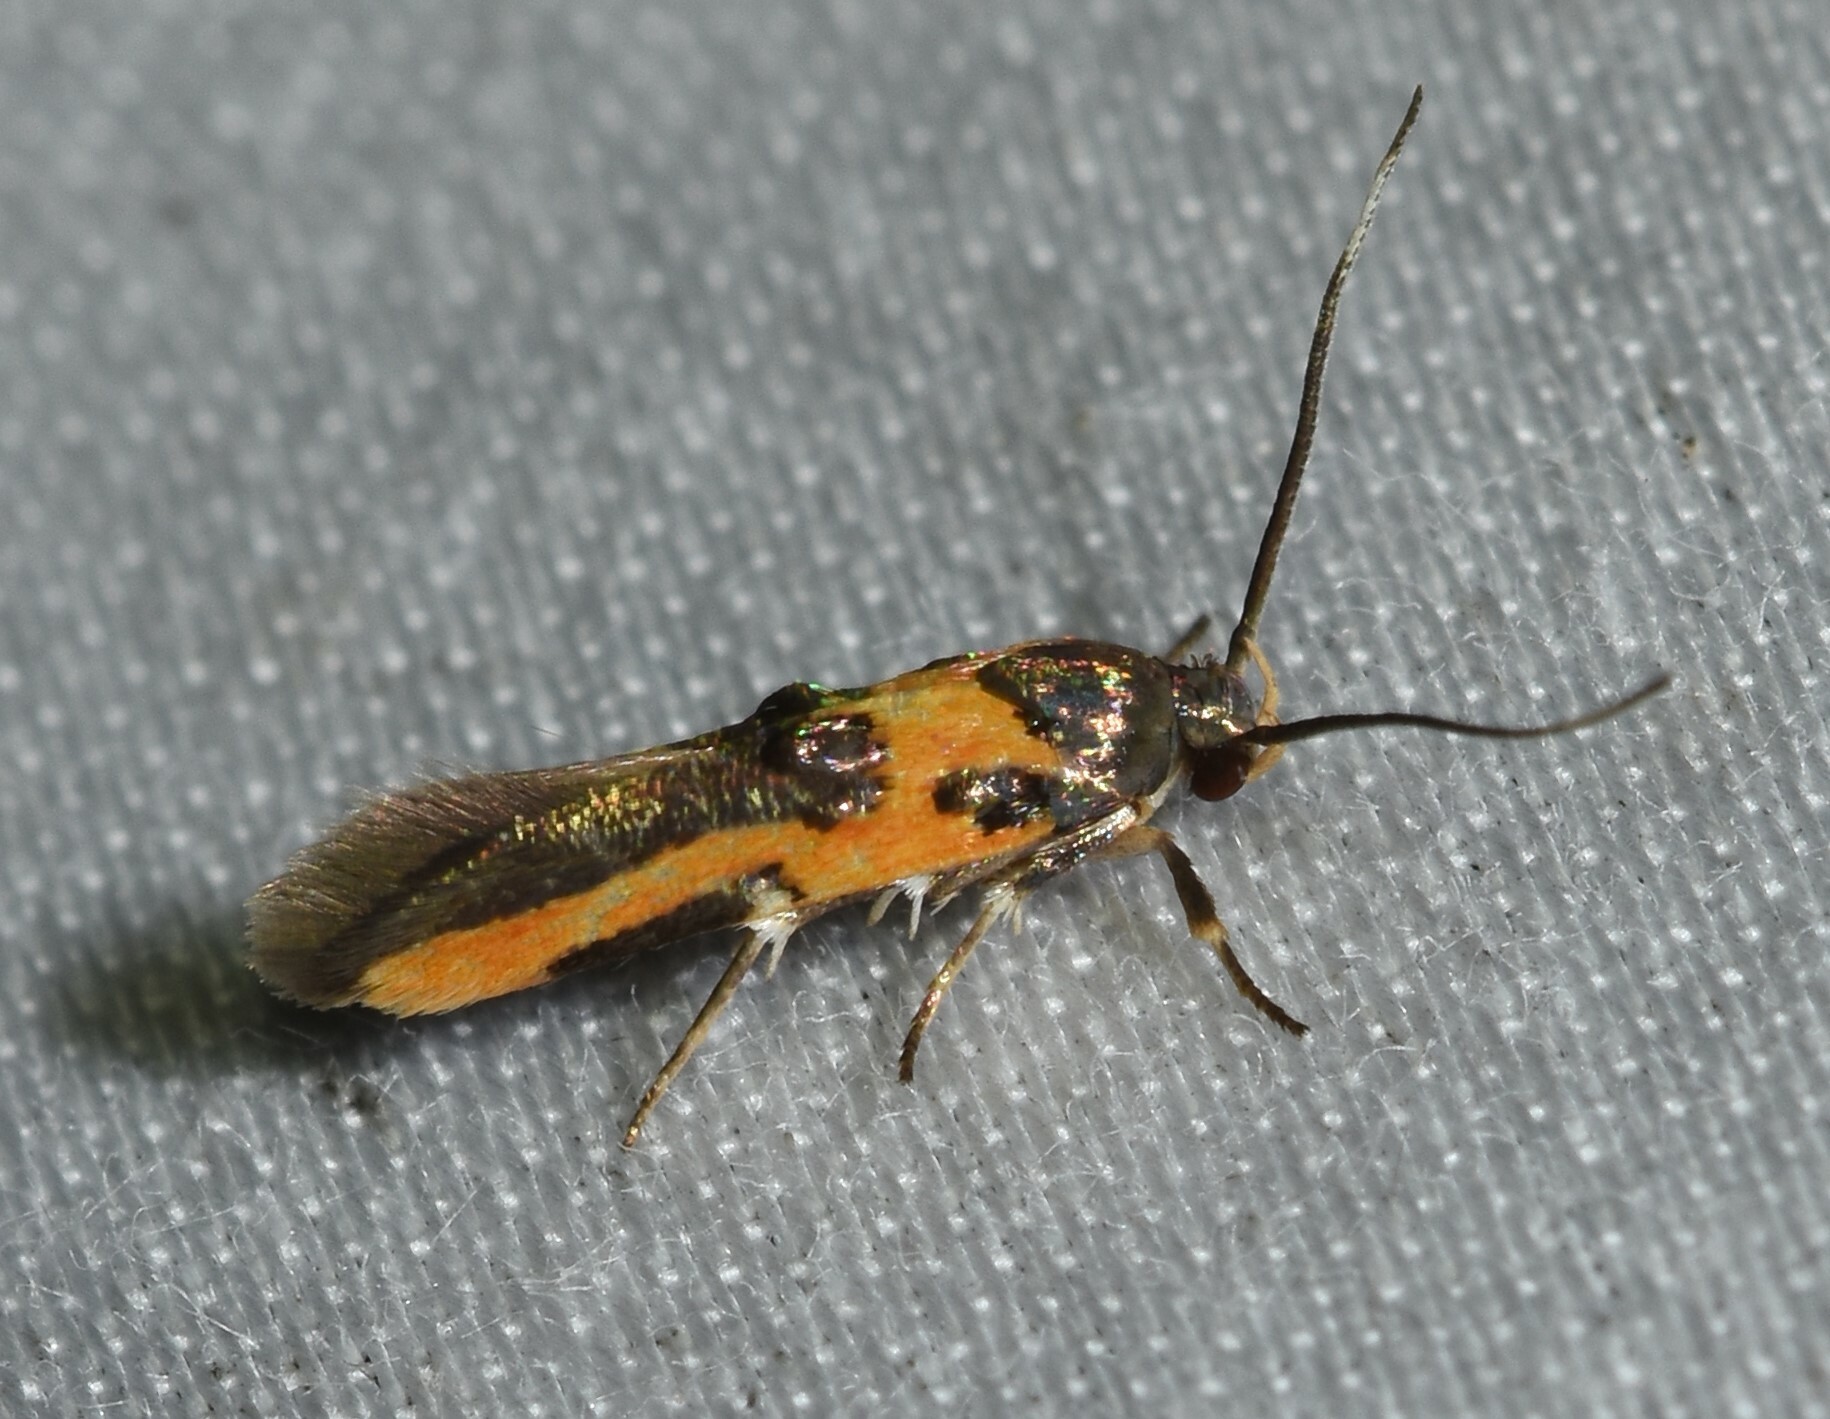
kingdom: Animalia
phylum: Arthropoda
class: Insecta
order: Lepidoptera
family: Cosmopterigidae
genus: Euclemensia
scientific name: Euclemensia bassettella
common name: Kermes scale moth
